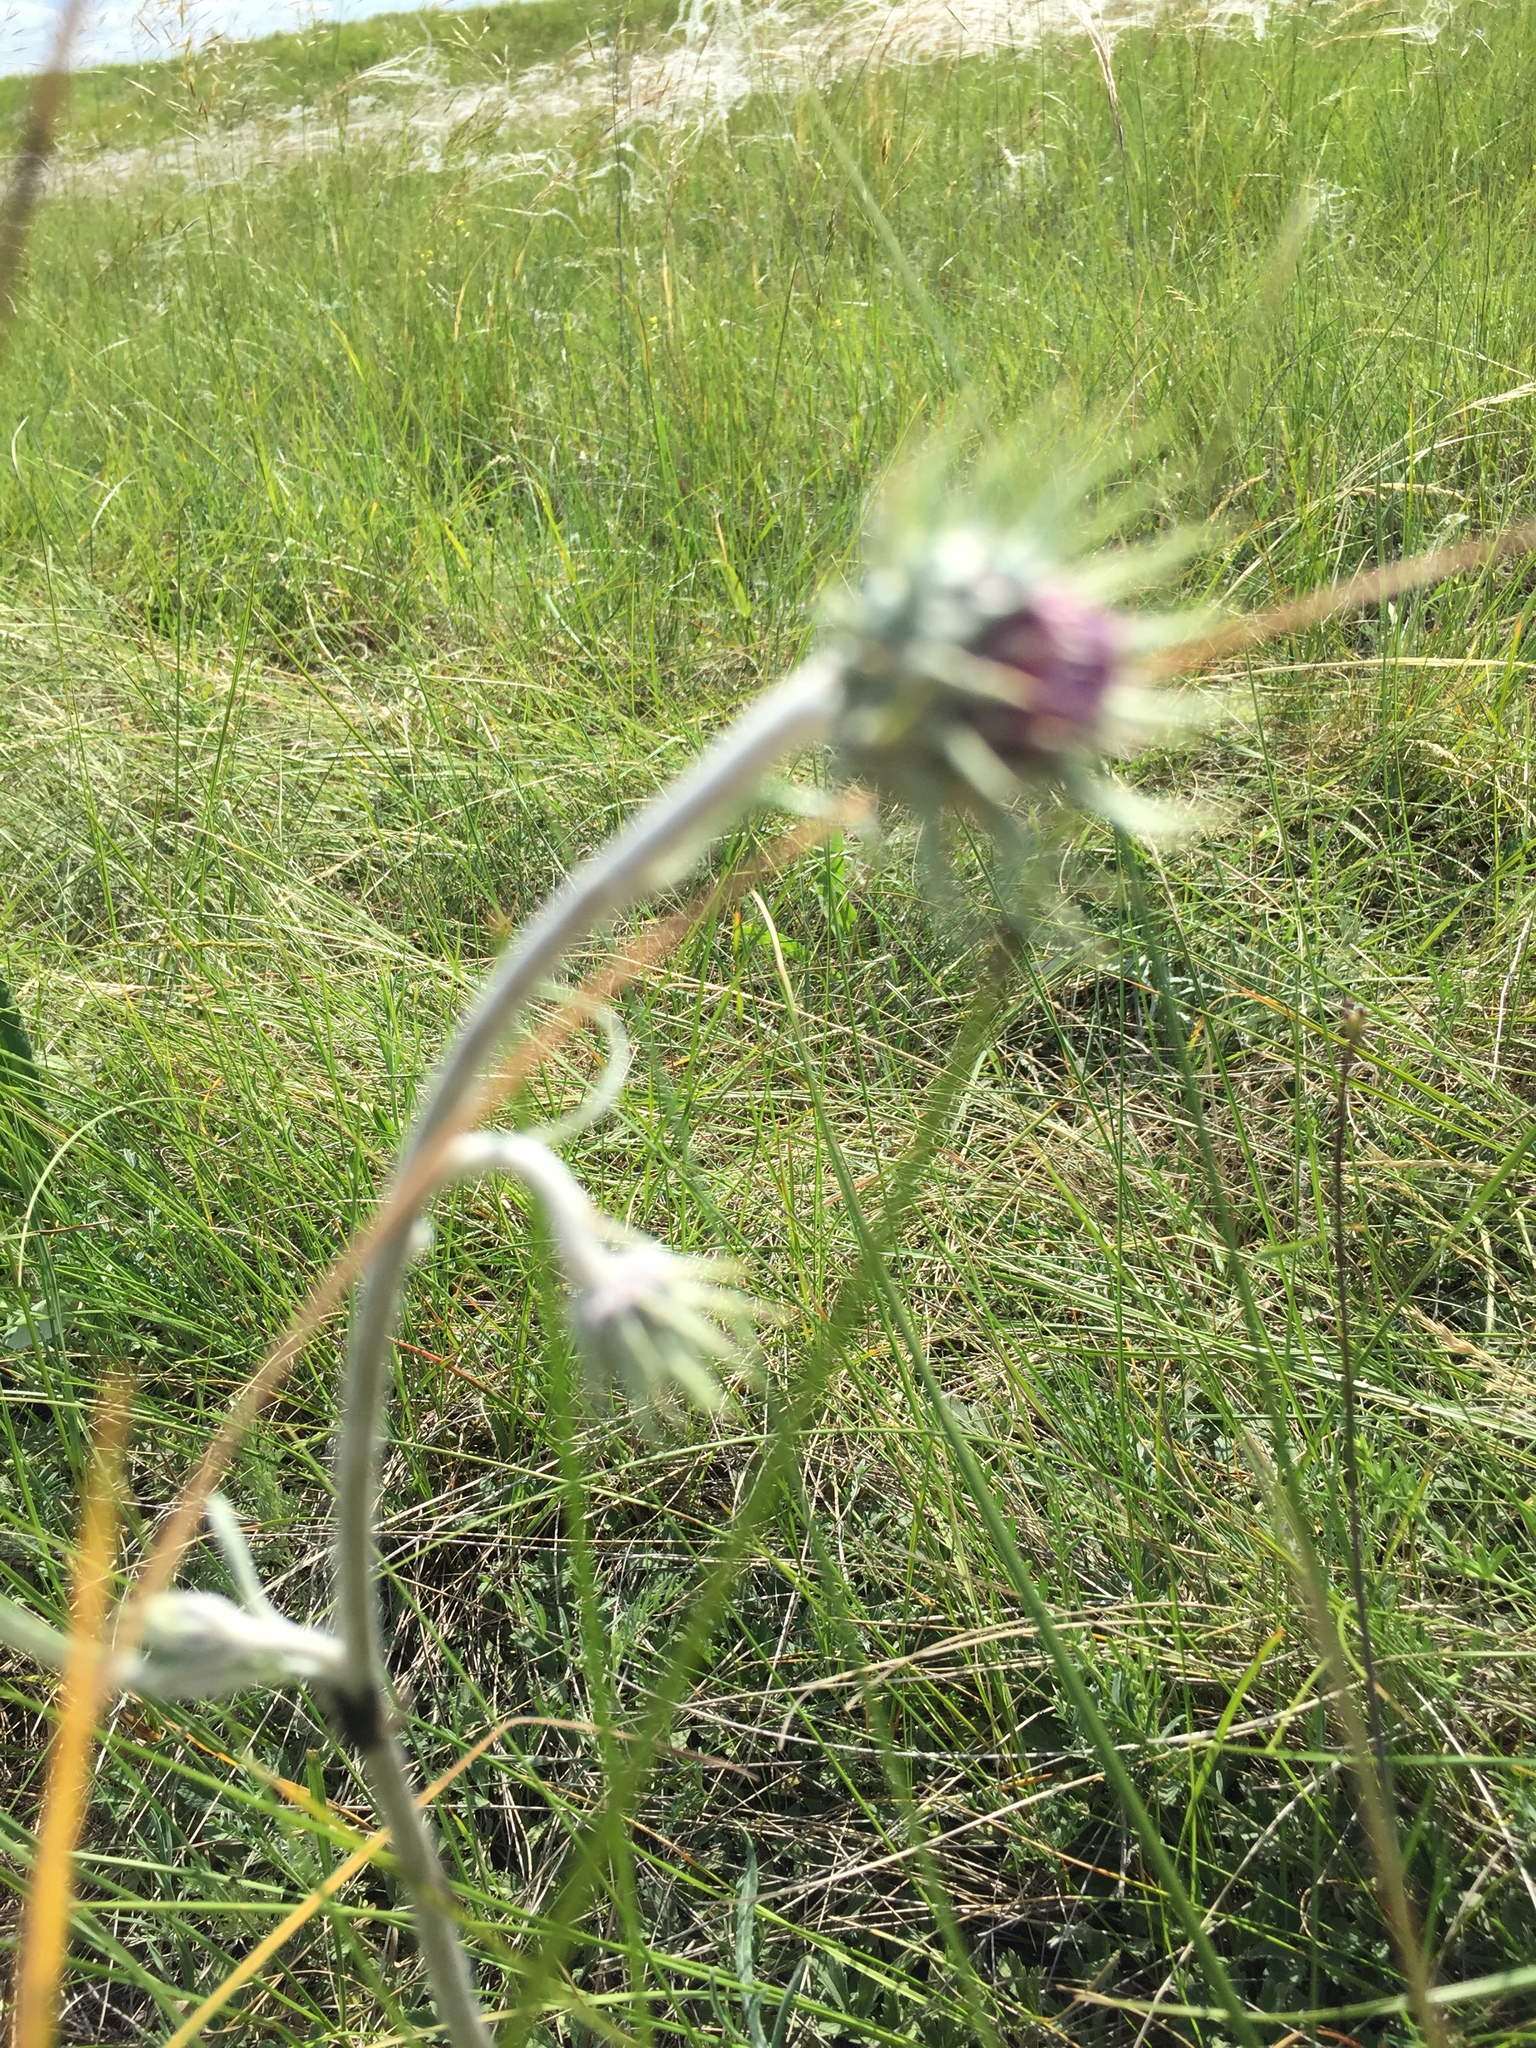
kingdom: Plantae
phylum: Tracheophyta
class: Magnoliopsida
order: Asterales
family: Asteraceae
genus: Jurinea
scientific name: Jurinea cyanoides
